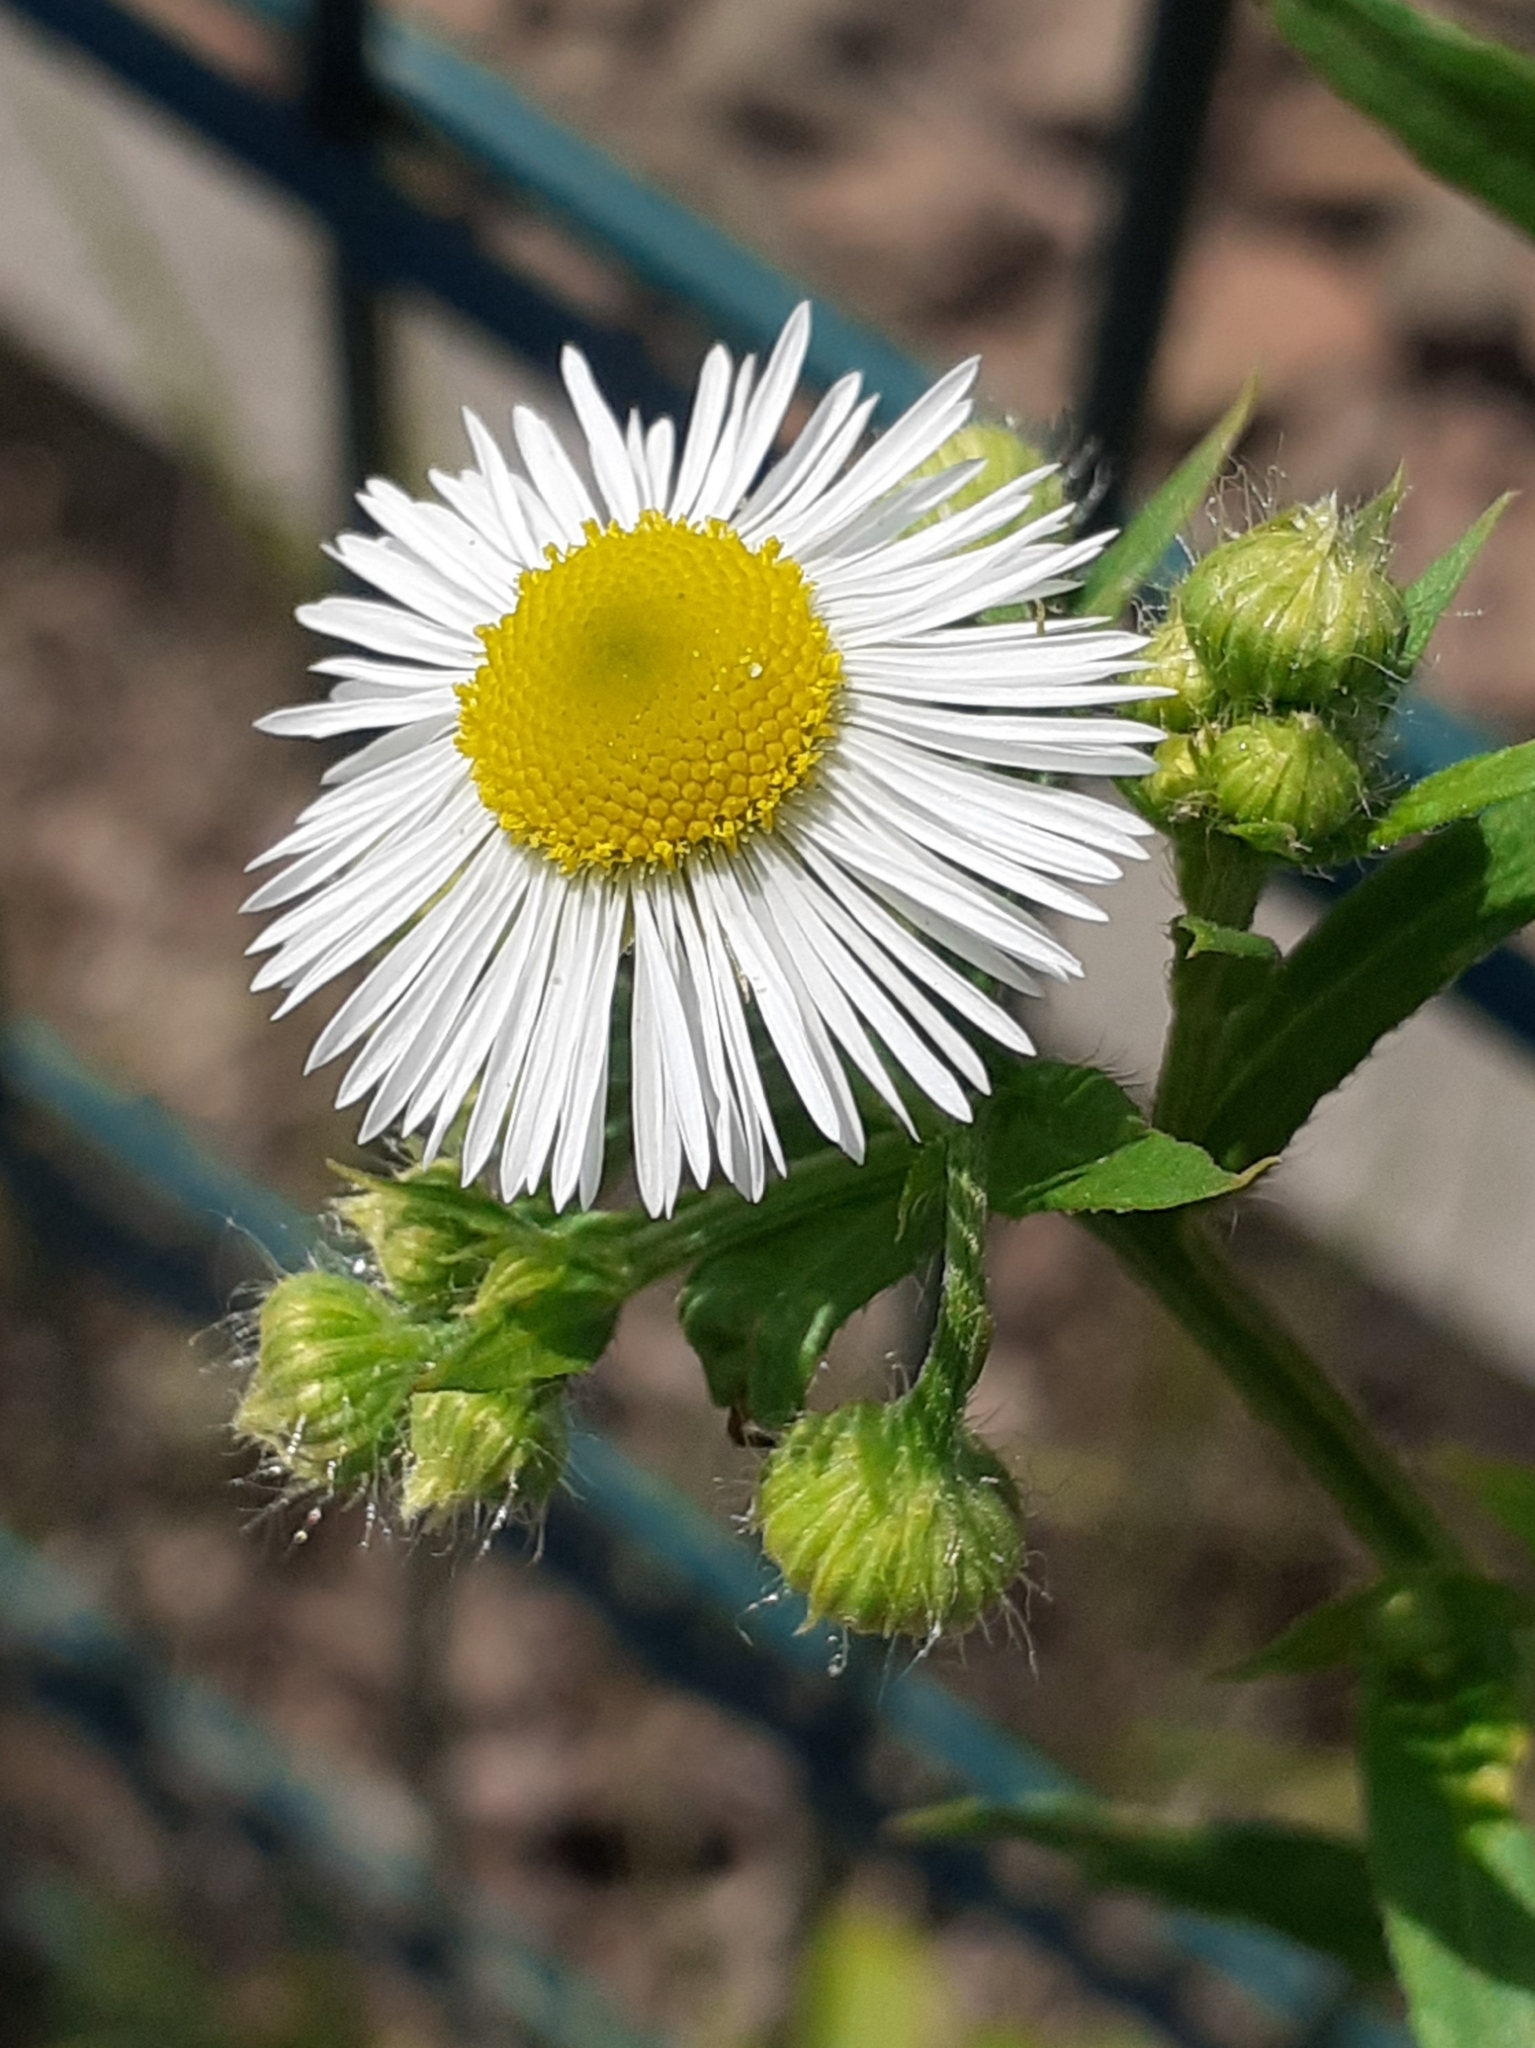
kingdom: Plantae
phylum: Tracheophyta
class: Magnoliopsida
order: Asterales
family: Asteraceae
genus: Erigeron
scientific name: Erigeron annuus
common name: Tall fleabane
